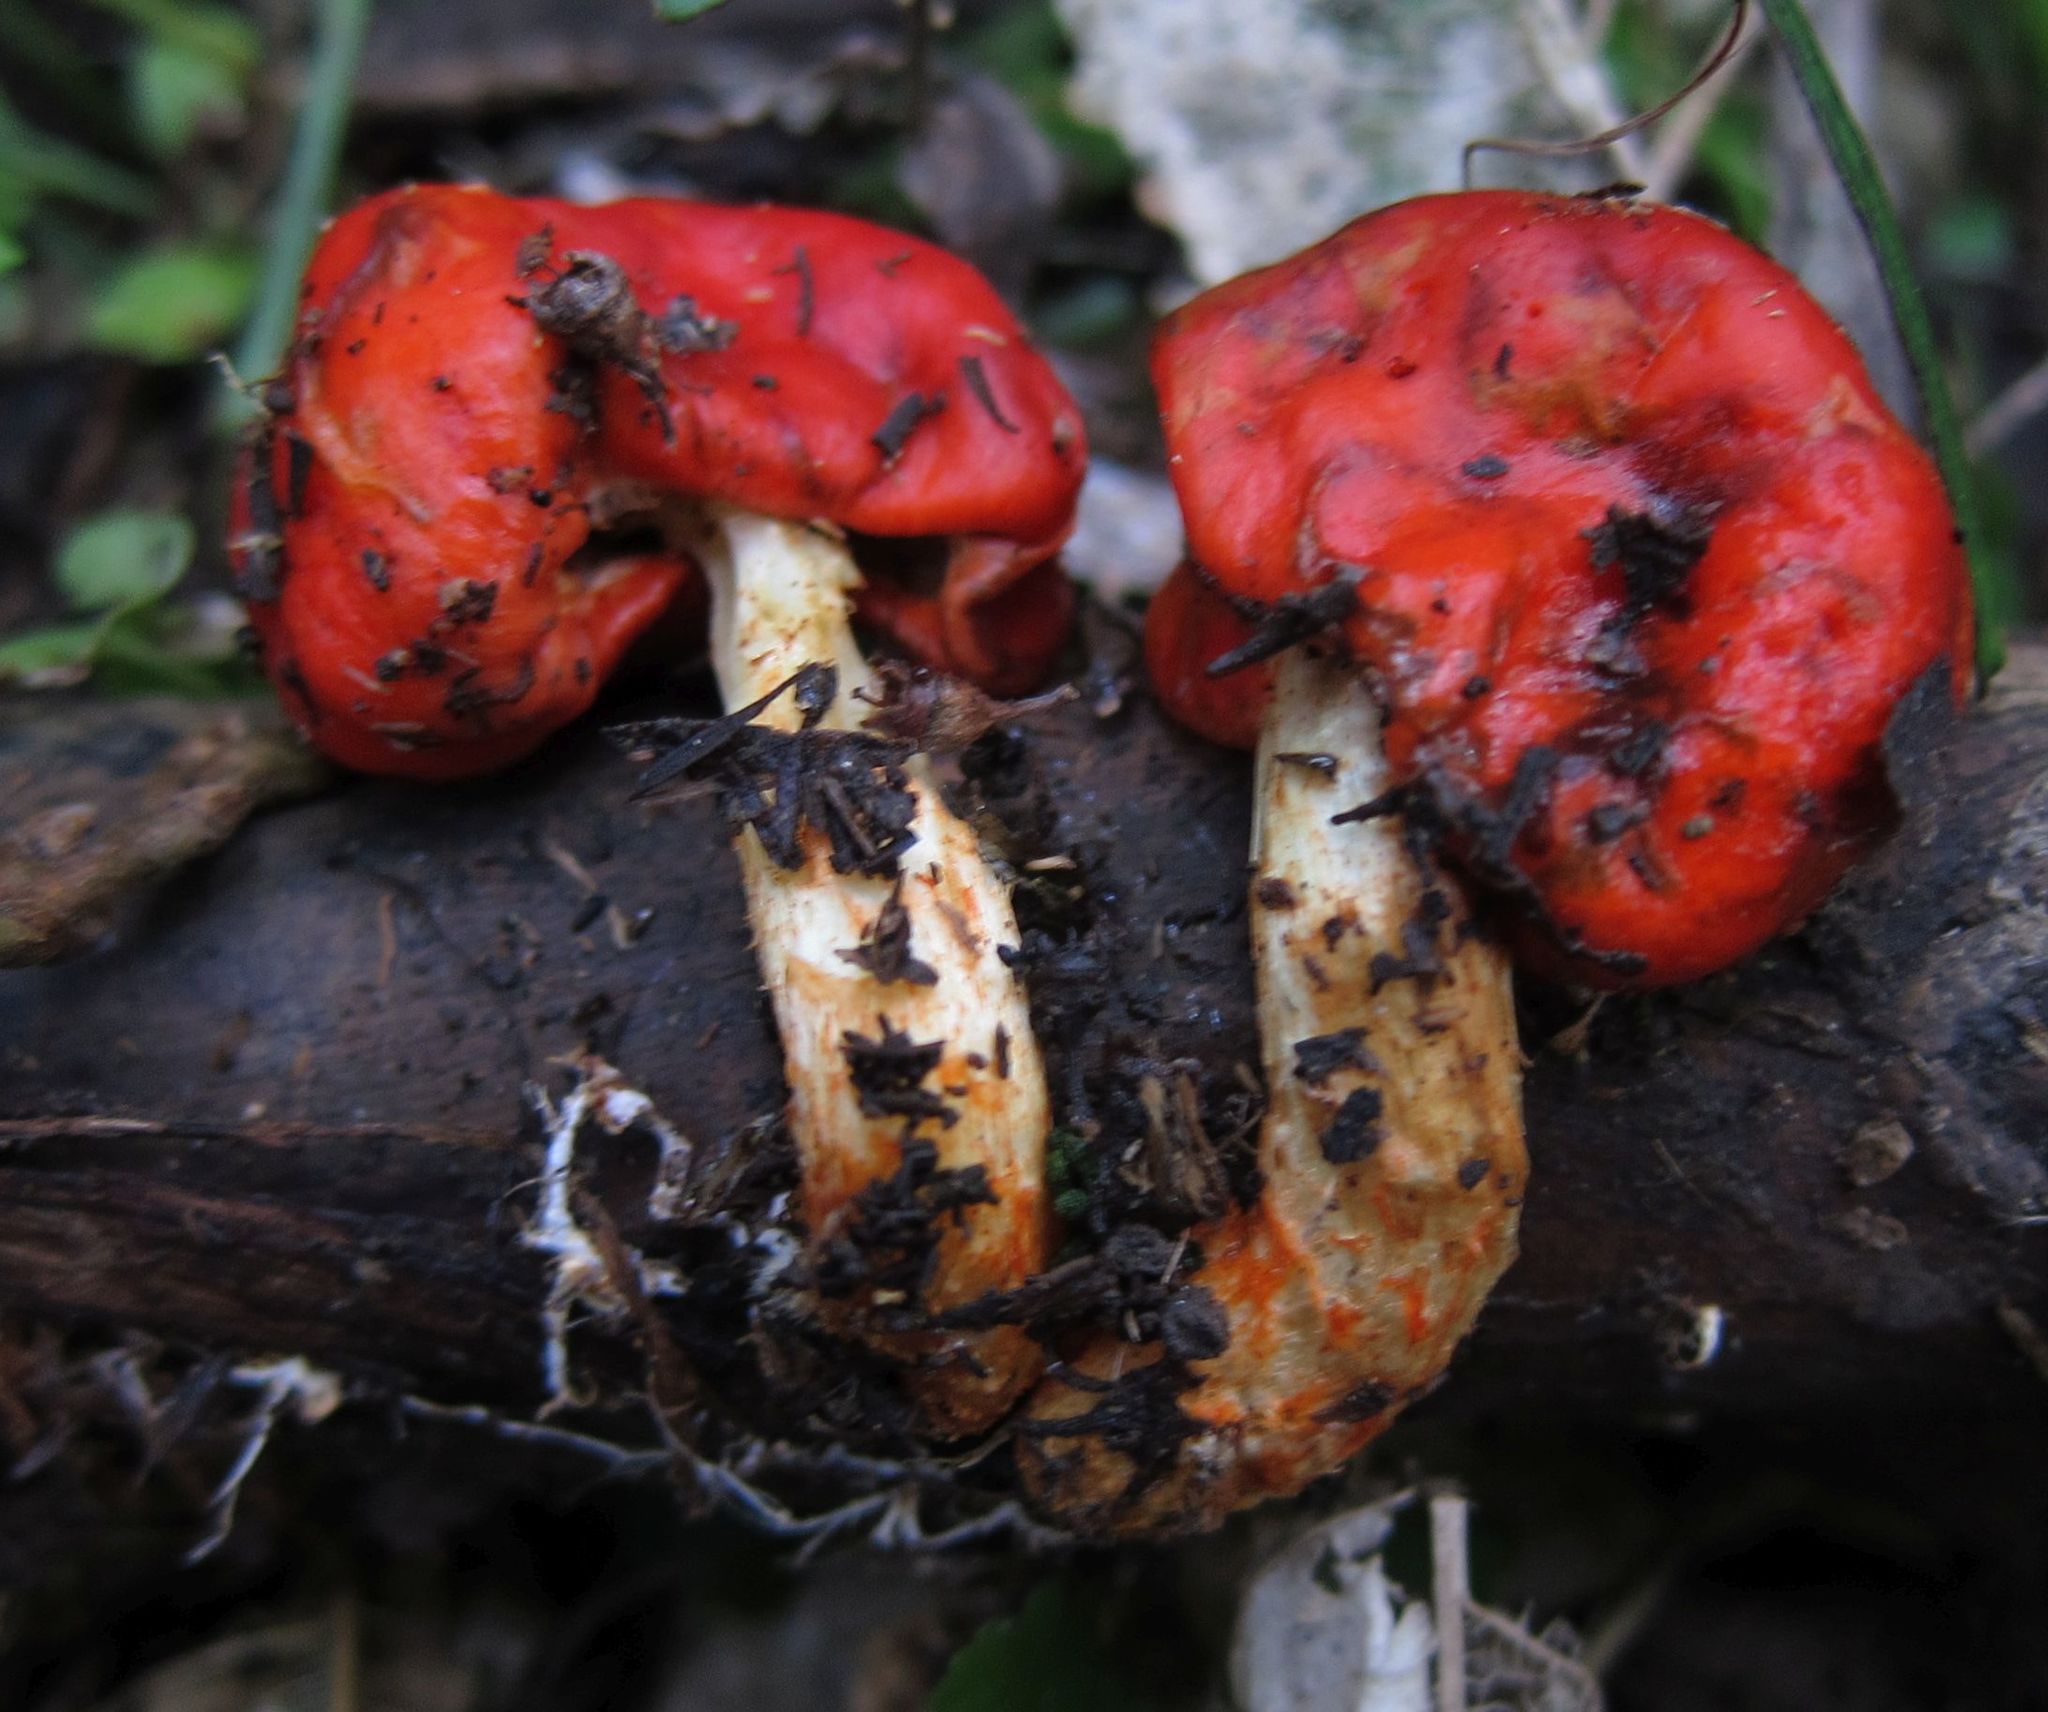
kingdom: Fungi
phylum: Basidiomycota
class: Agaricomycetes
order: Agaricales
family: Strophariaceae
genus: Leratiomyces
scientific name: Leratiomyces erythrocephalus
